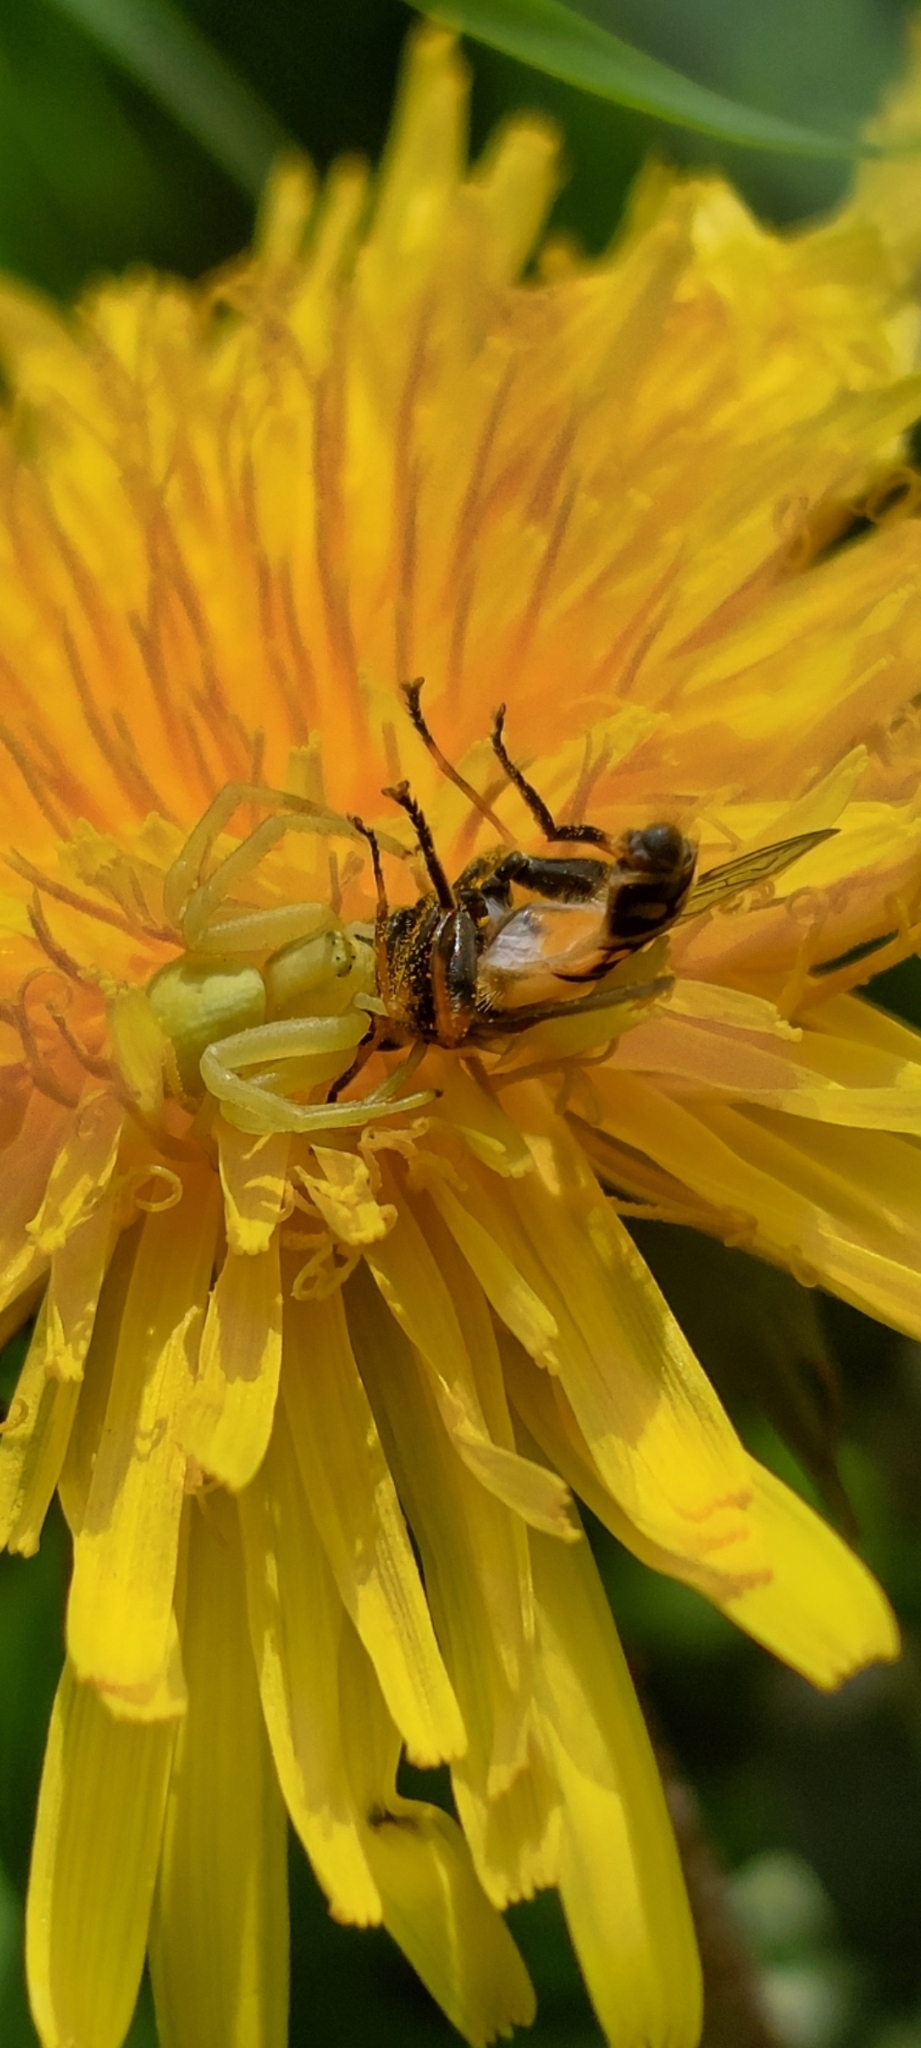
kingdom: Animalia
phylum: Arthropoda
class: Arachnida
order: Araneae
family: Thomisidae
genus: Misumena
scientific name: Misumena vatia
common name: Goldenrod crab spider
